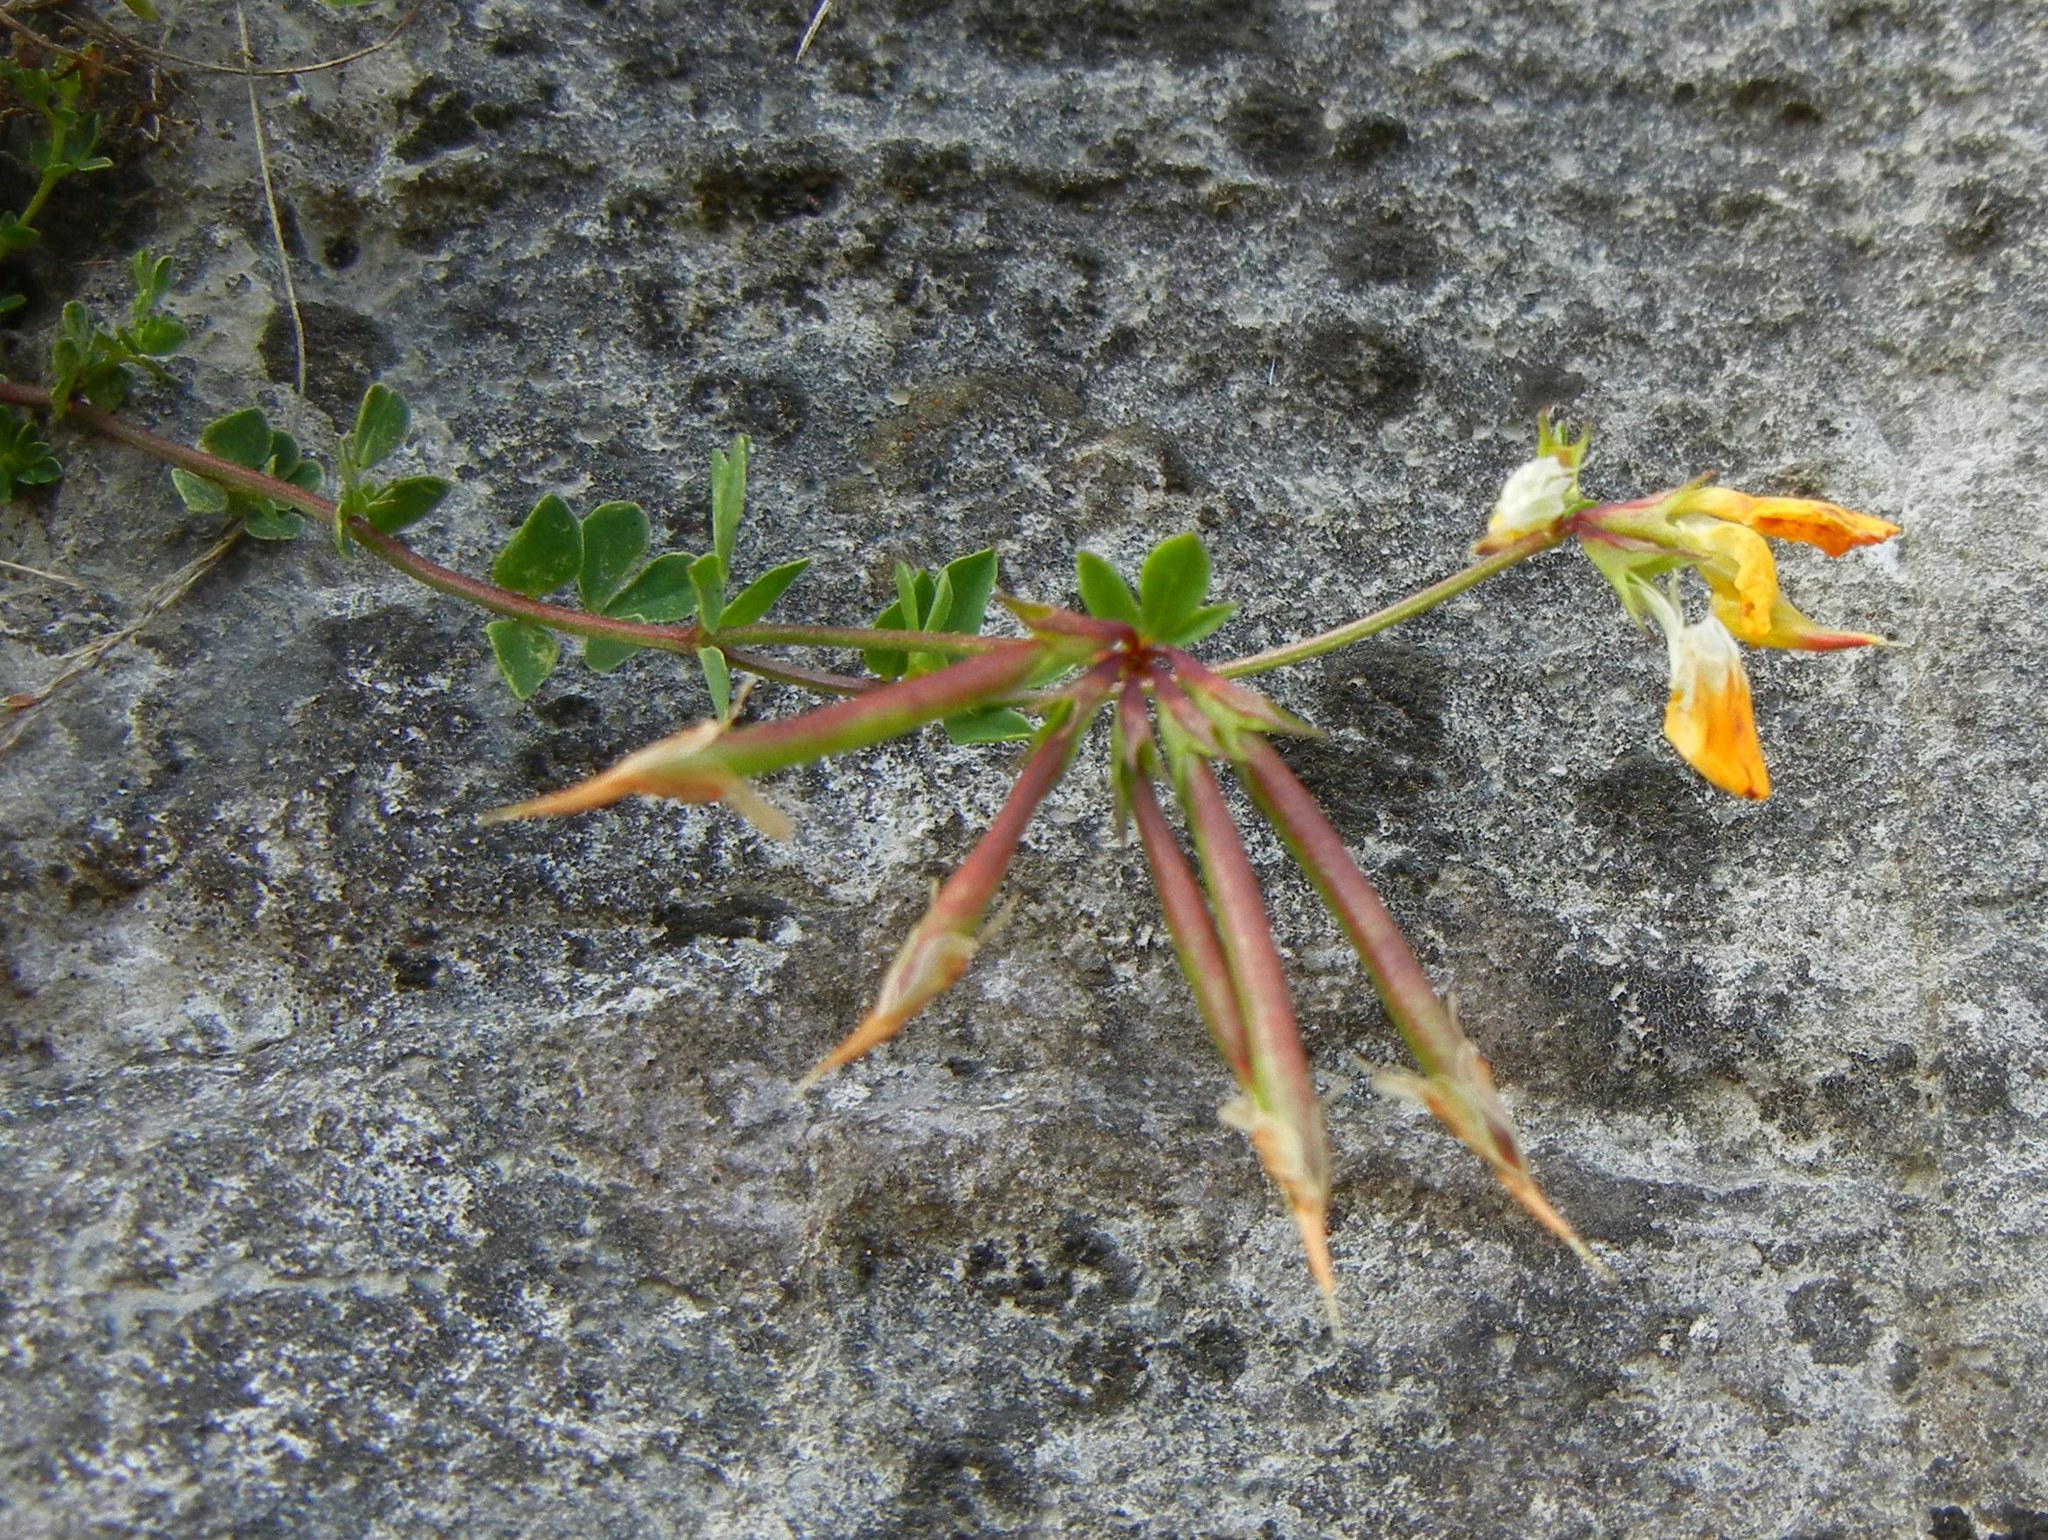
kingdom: Plantae
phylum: Tracheophyta
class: Magnoliopsida
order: Fabales
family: Fabaceae
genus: Lotus
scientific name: Lotus corniculatus
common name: Common bird's-foot-trefoil
